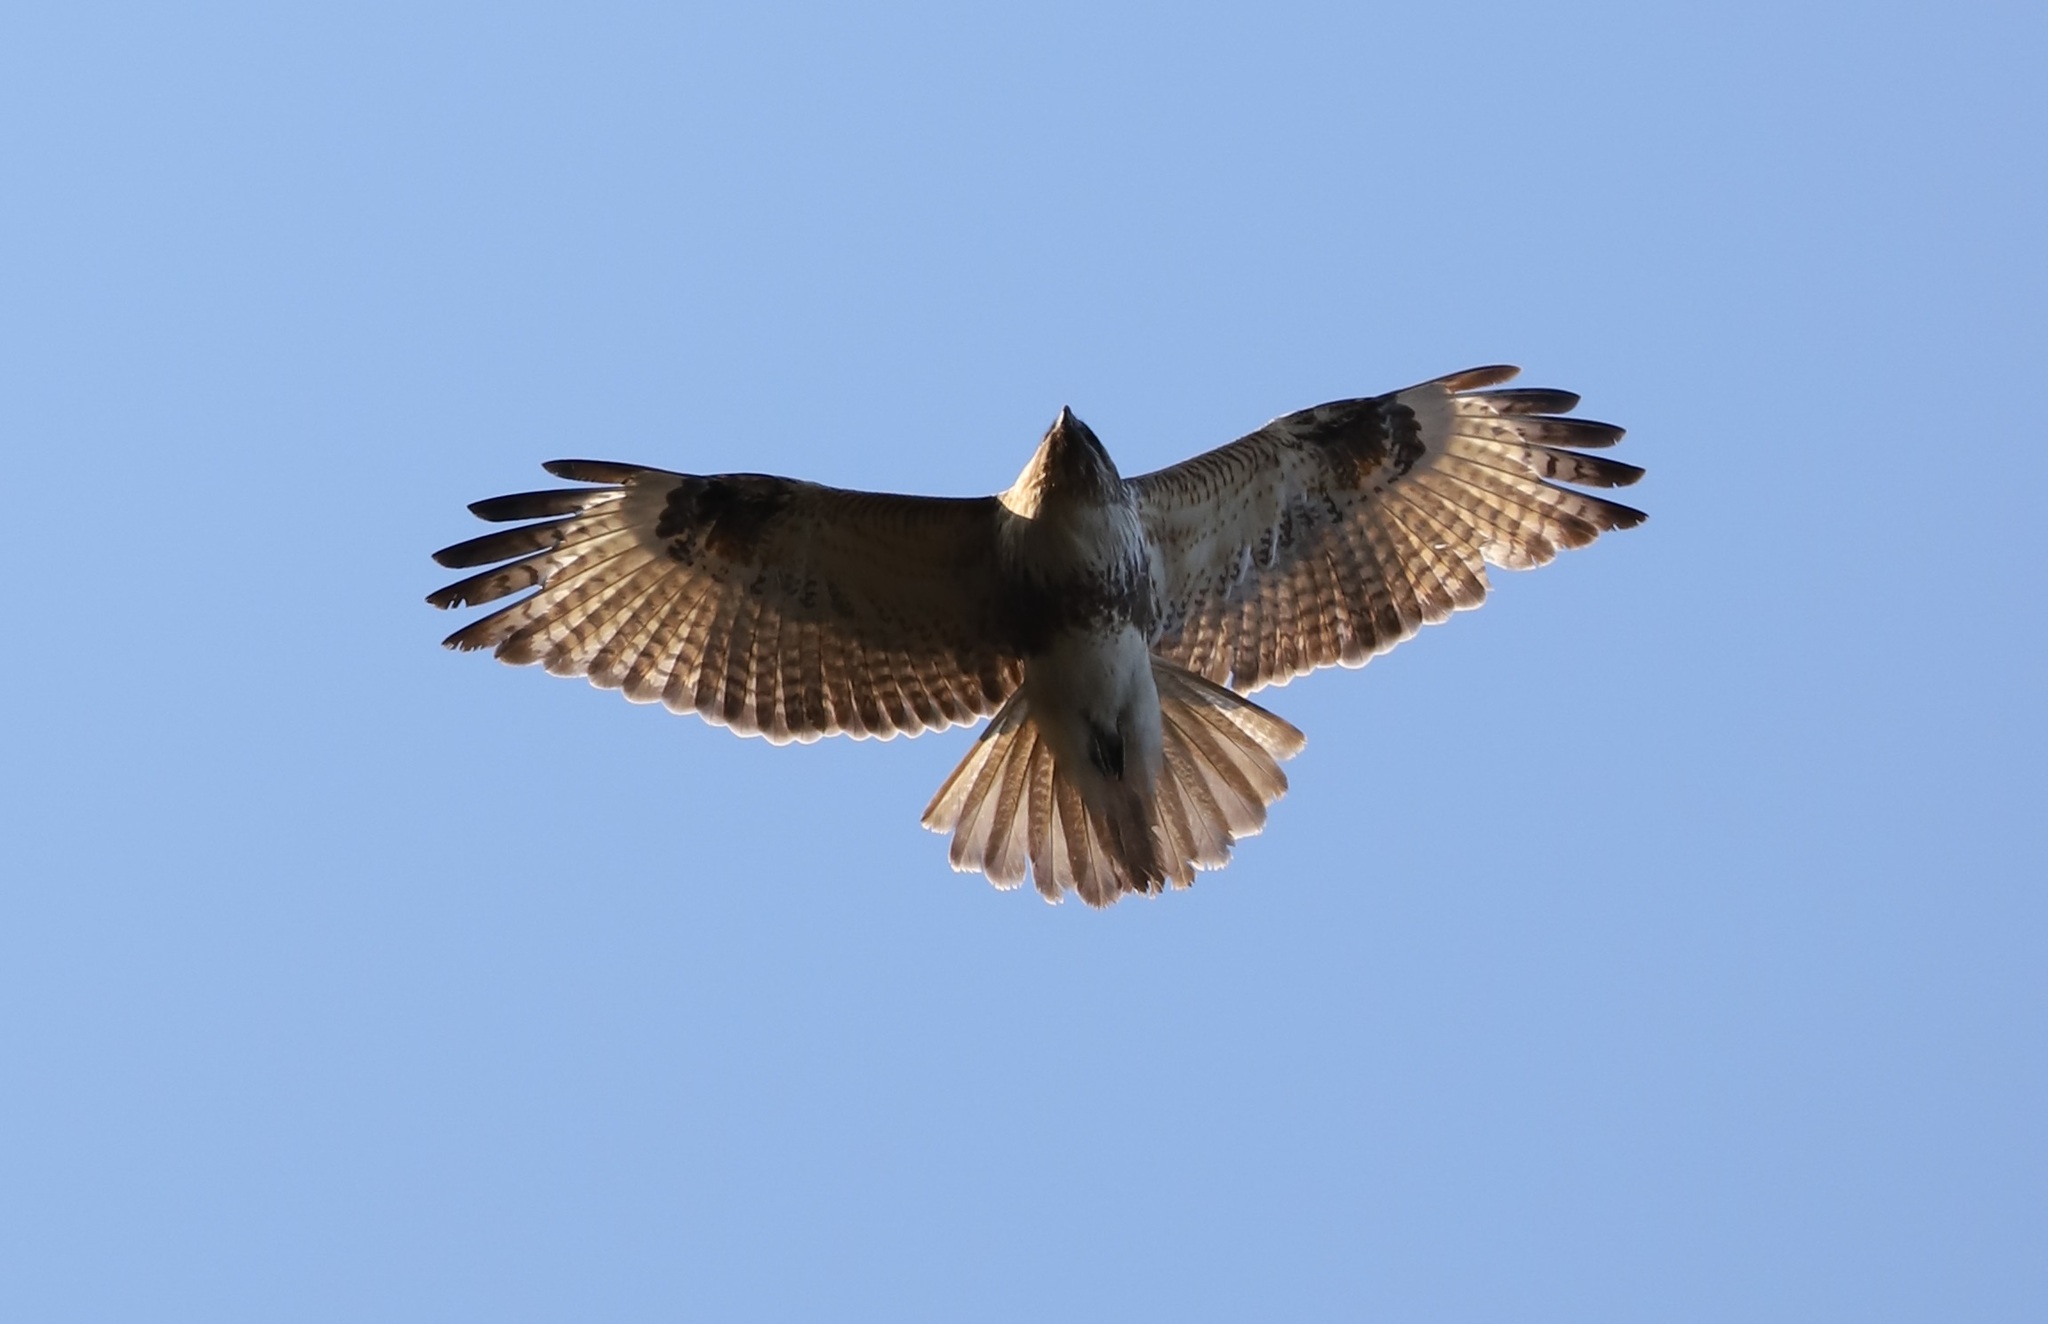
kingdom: Animalia
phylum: Chordata
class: Aves
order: Accipitriformes
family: Accipitridae
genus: Buteo
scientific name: Buteo japonicus
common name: Eastern buzzard
